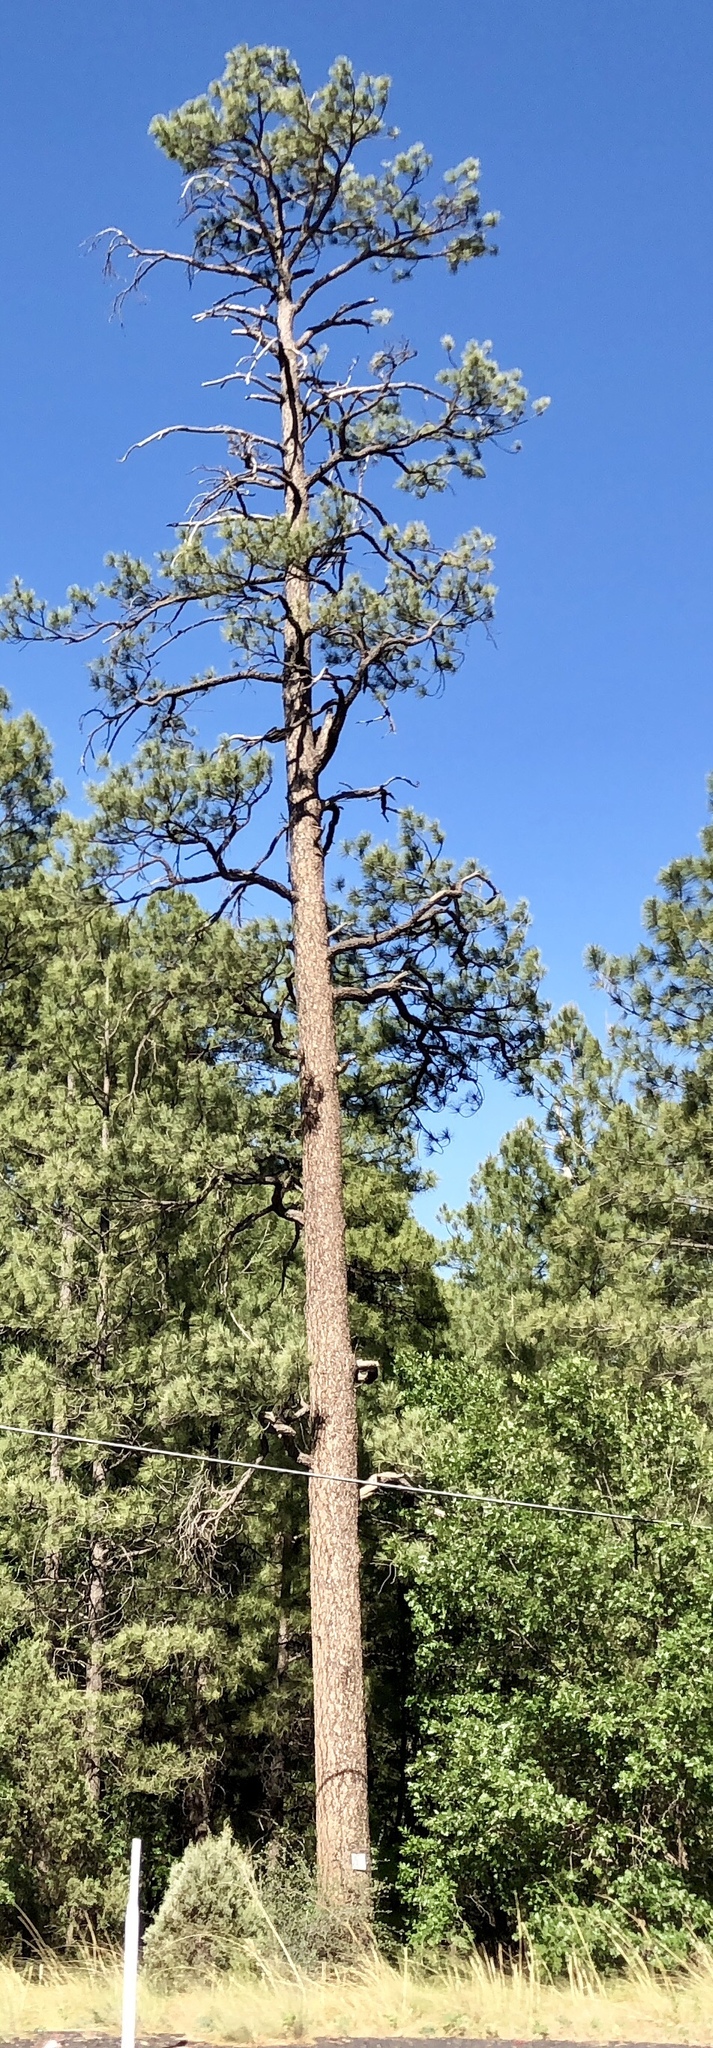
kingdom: Plantae
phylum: Tracheophyta
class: Pinopsida
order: Pinales
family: Pinaceae
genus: Pinus
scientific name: Pinus ponderosa
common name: Western yellow-pine
